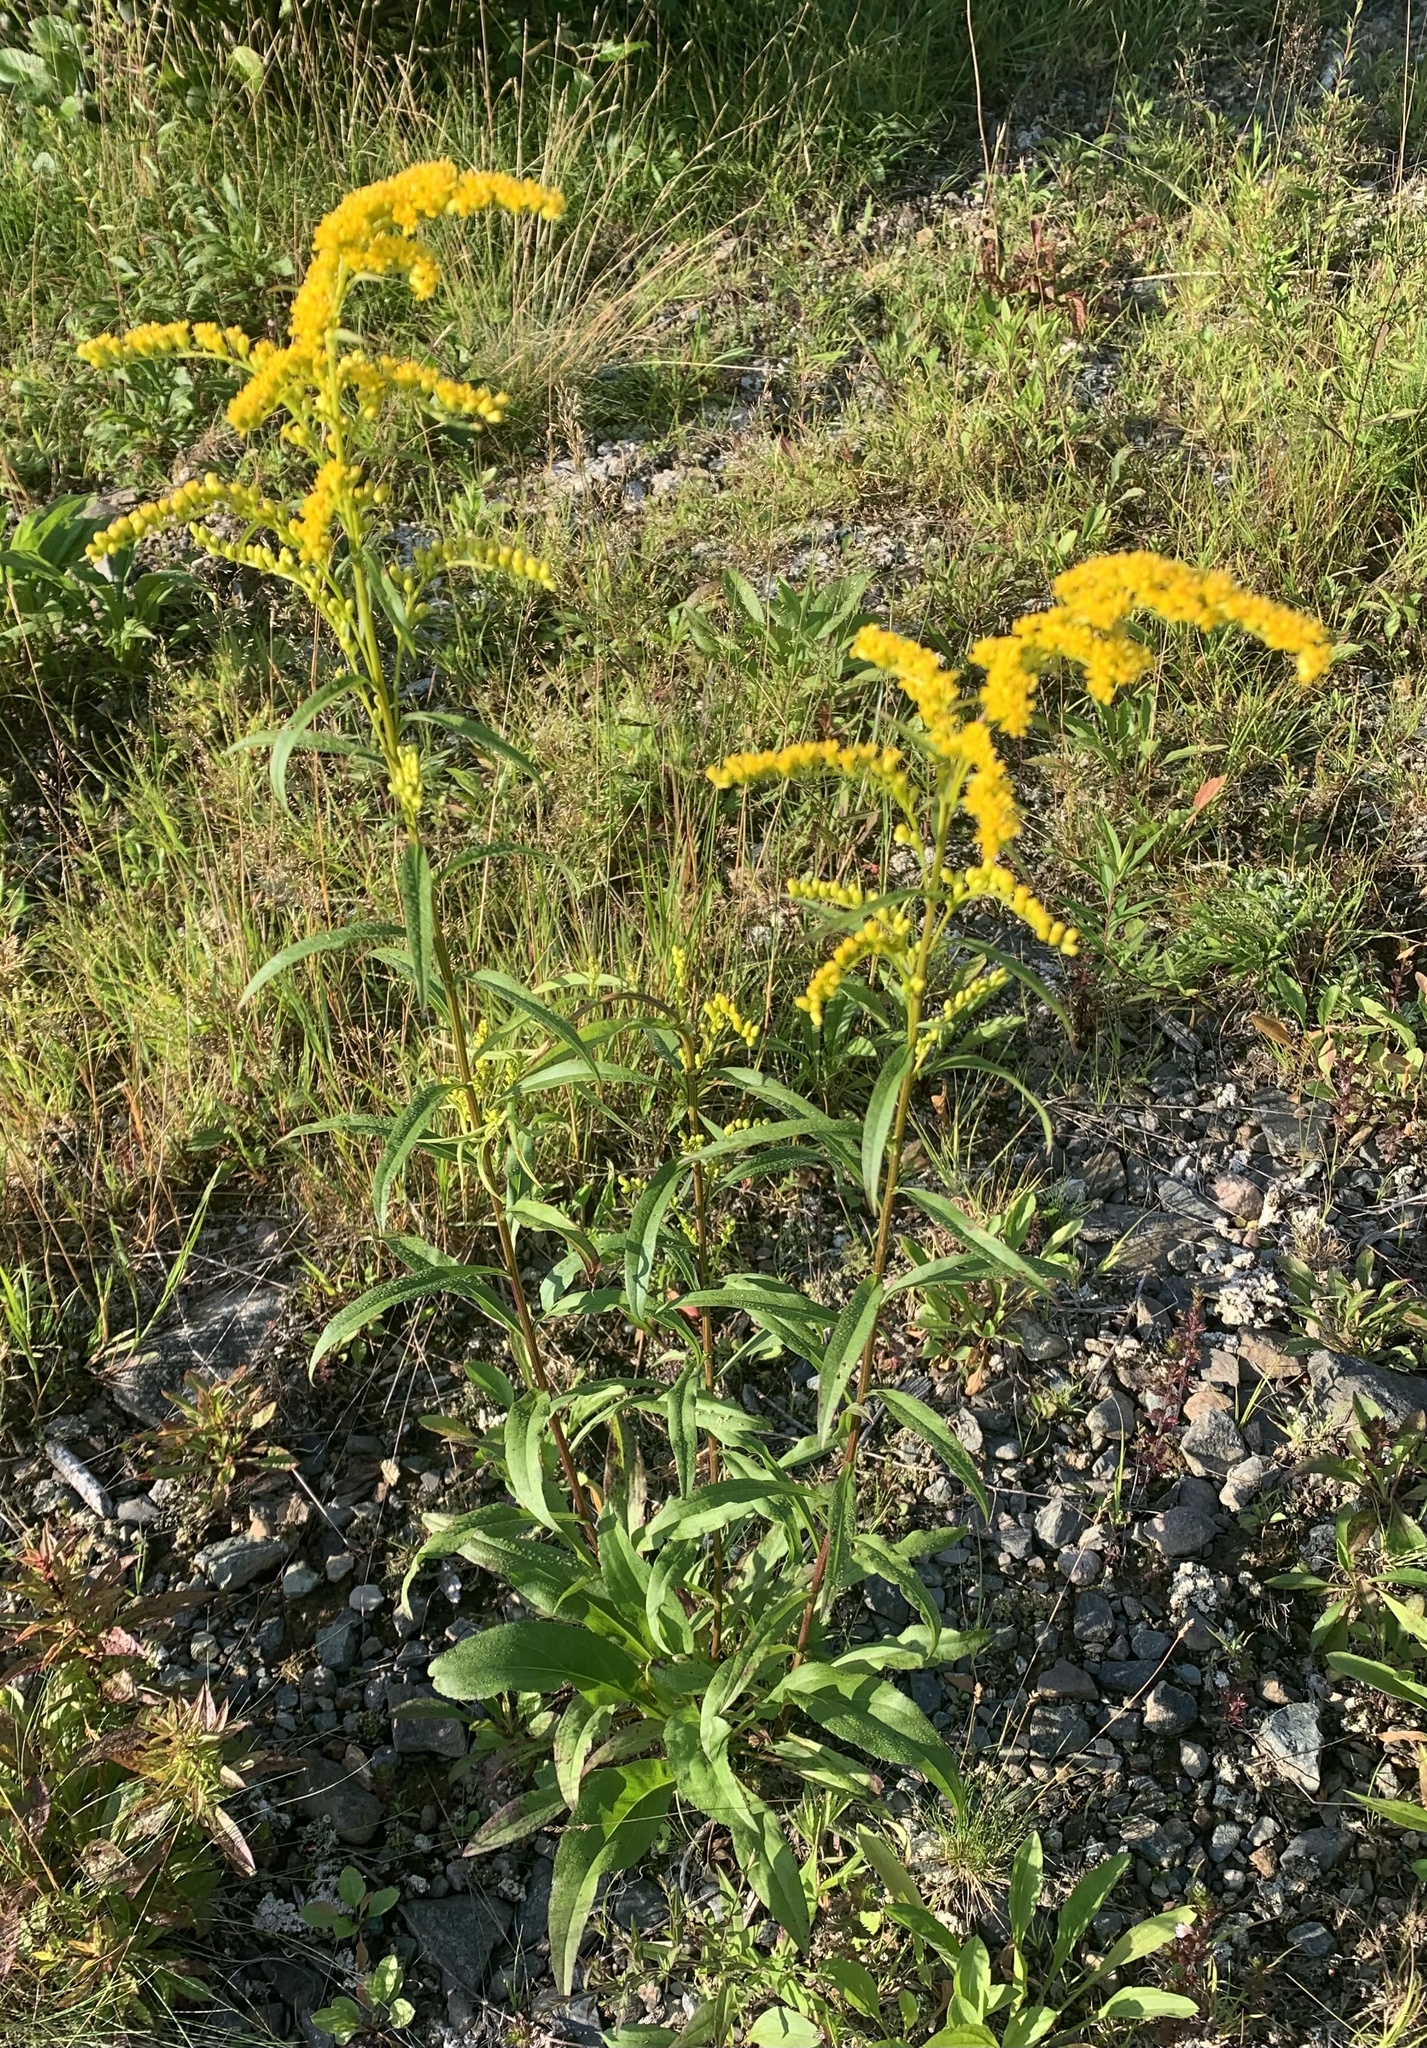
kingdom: Plantae
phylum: Tracheophyta
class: Magnoliopsida
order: Asterales
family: Asteraceae
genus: Solidago
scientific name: Solidago juncea
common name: Early goldenrod
